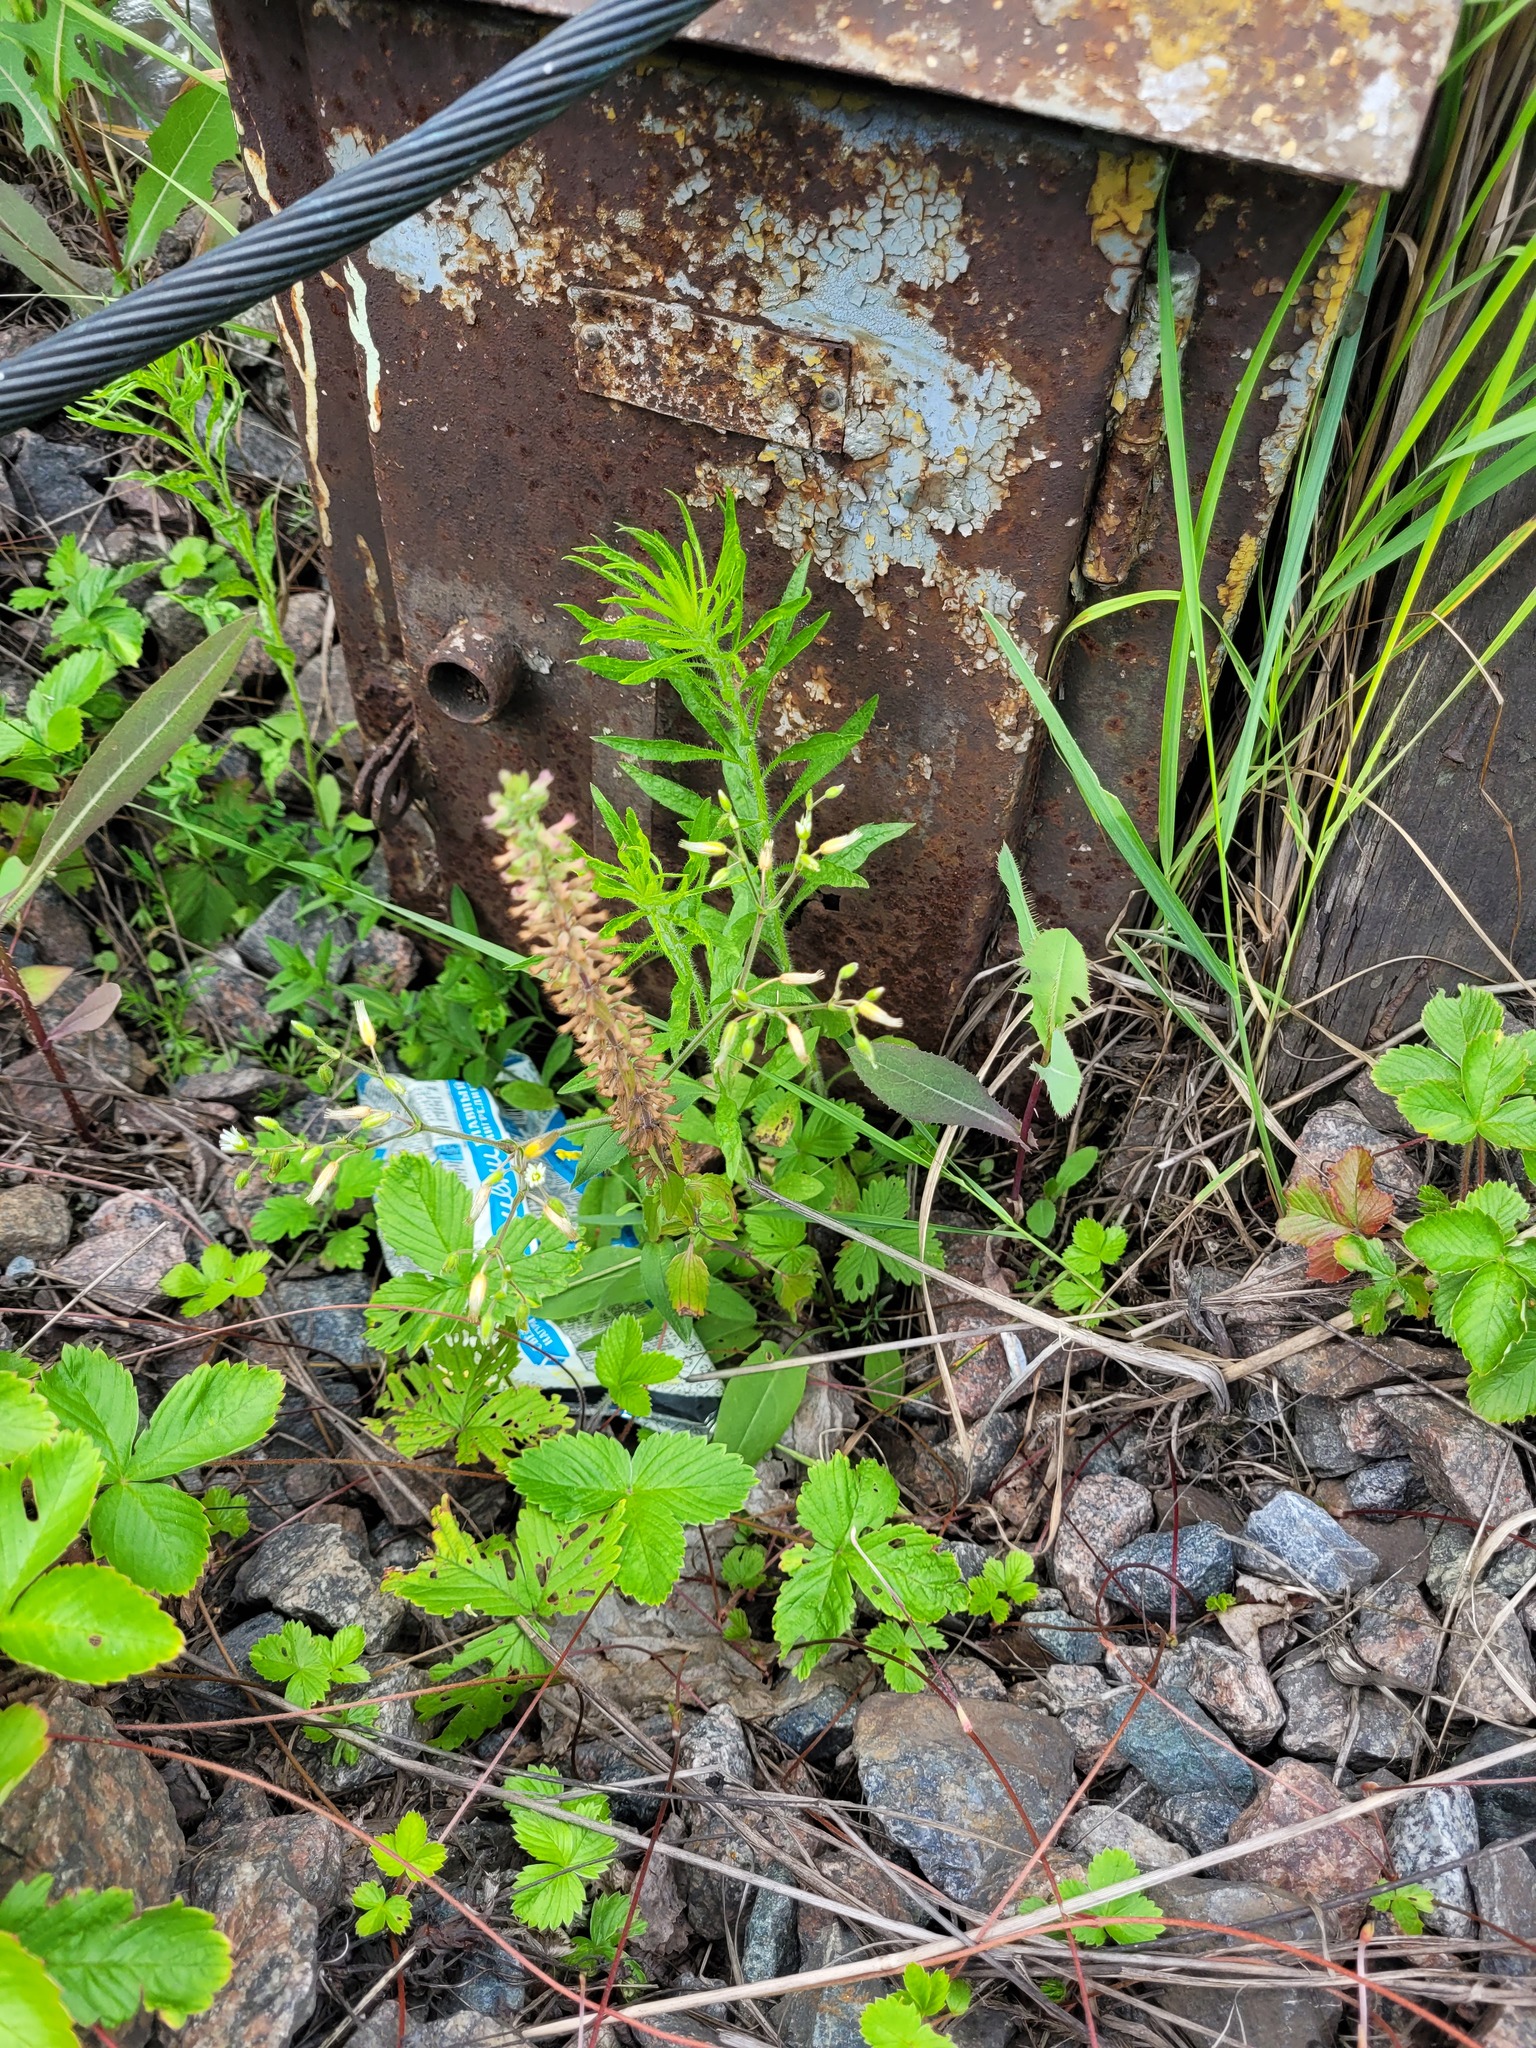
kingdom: Plantae
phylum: Tracheophyta
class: Magnoliopsida
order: Lamiales
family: Lamiaceae
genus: Dracocephalum
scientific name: Dracocephalum thymiflorum
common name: Thymeleaf dragonhead
